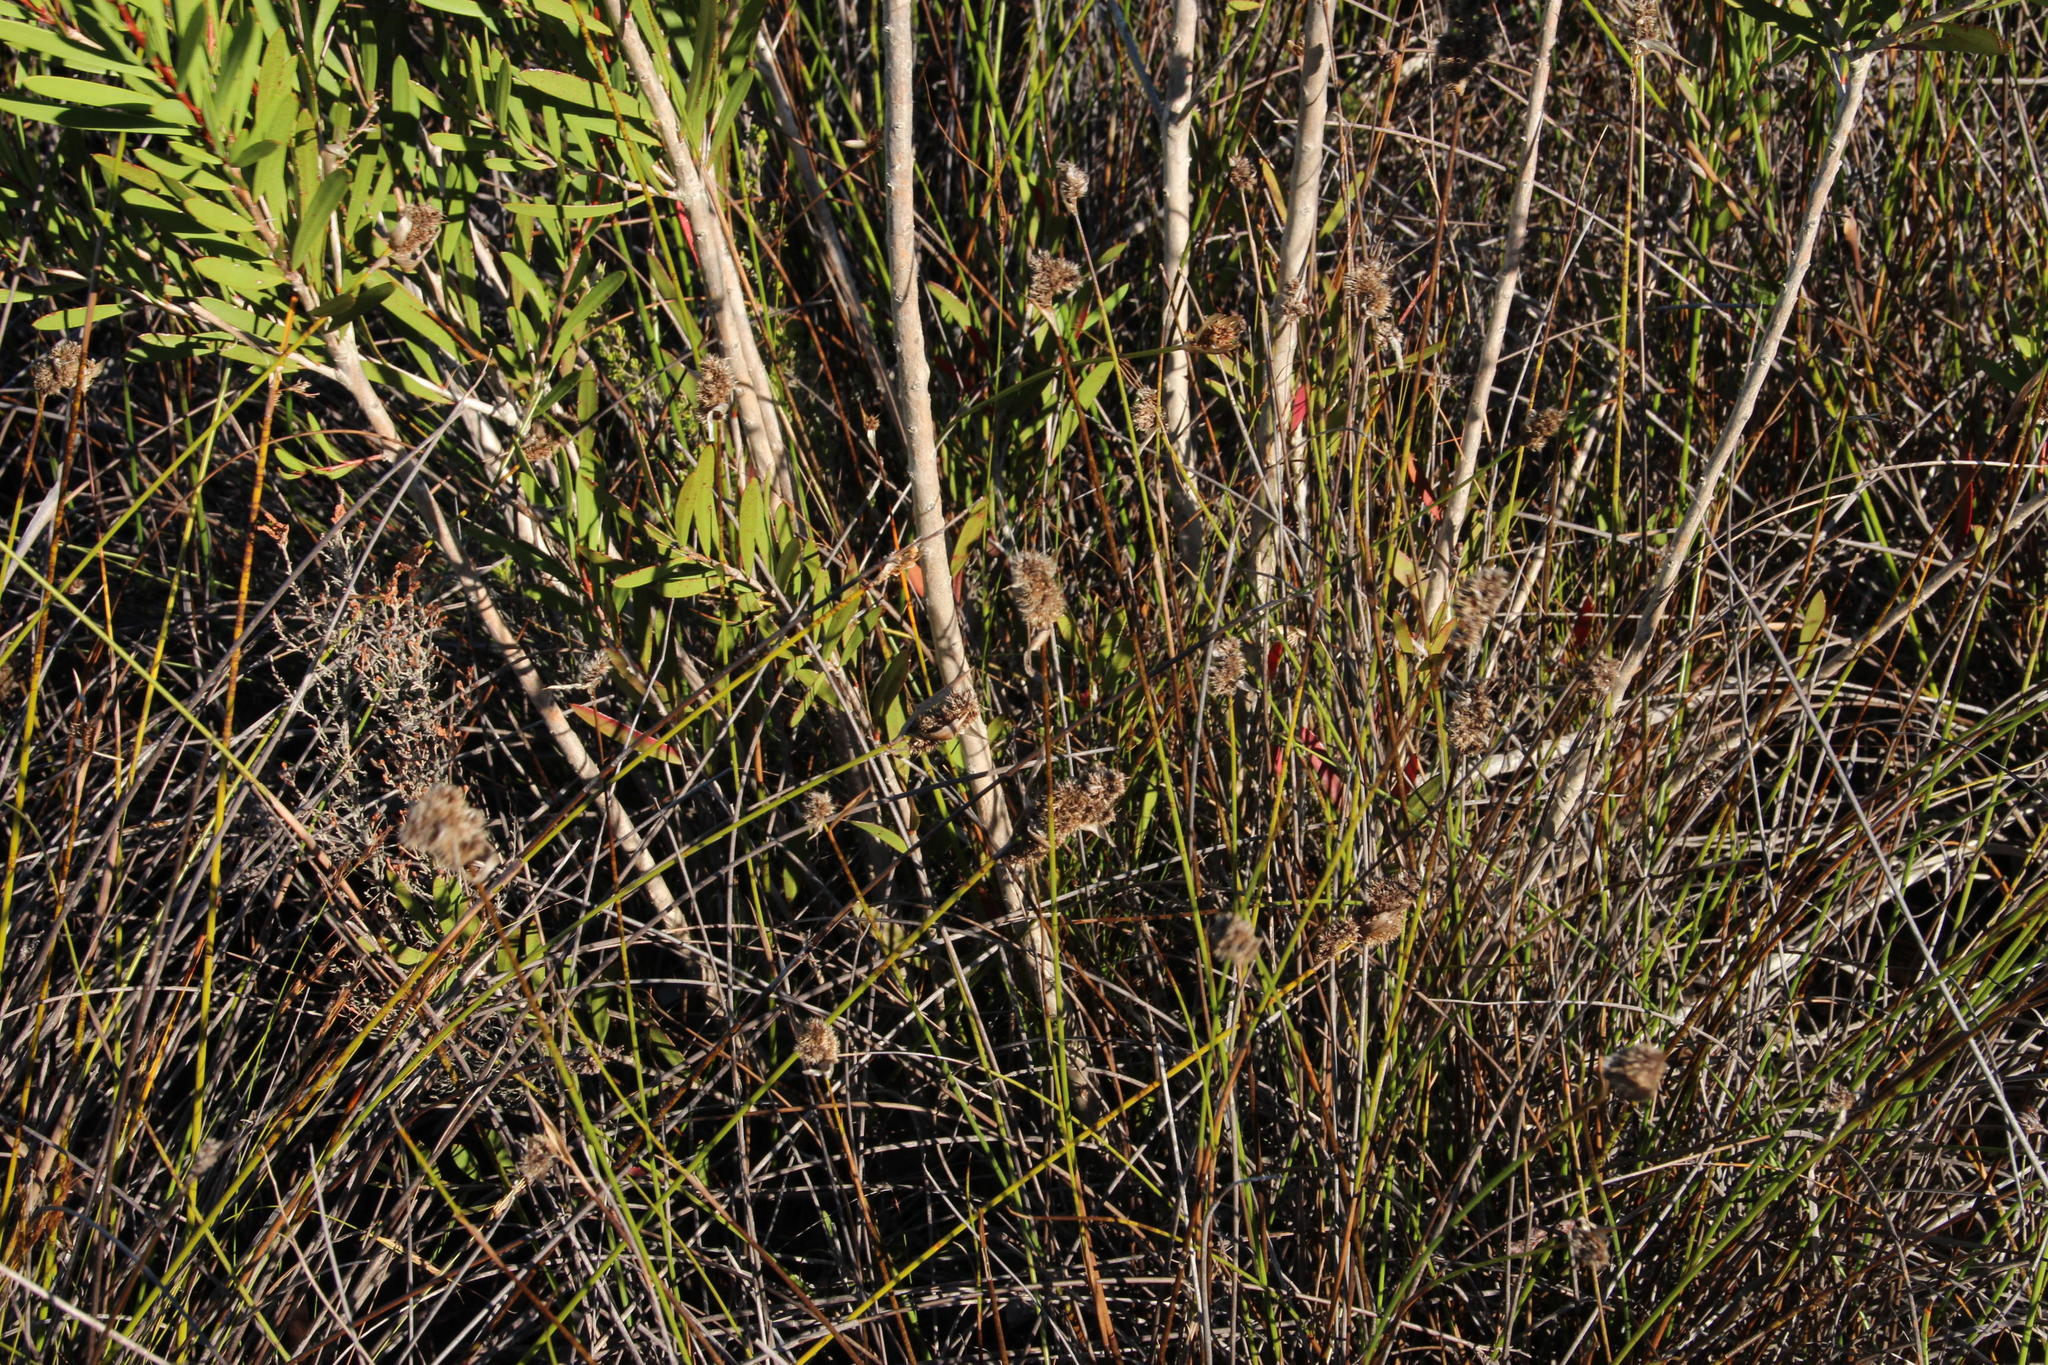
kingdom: Plantae
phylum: Tracheophyta
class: Magnoliopsida
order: Myrtales
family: Myrtaceae
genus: Callistemon
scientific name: Callistemon pachyphyllus
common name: Wallum bottlebrush
